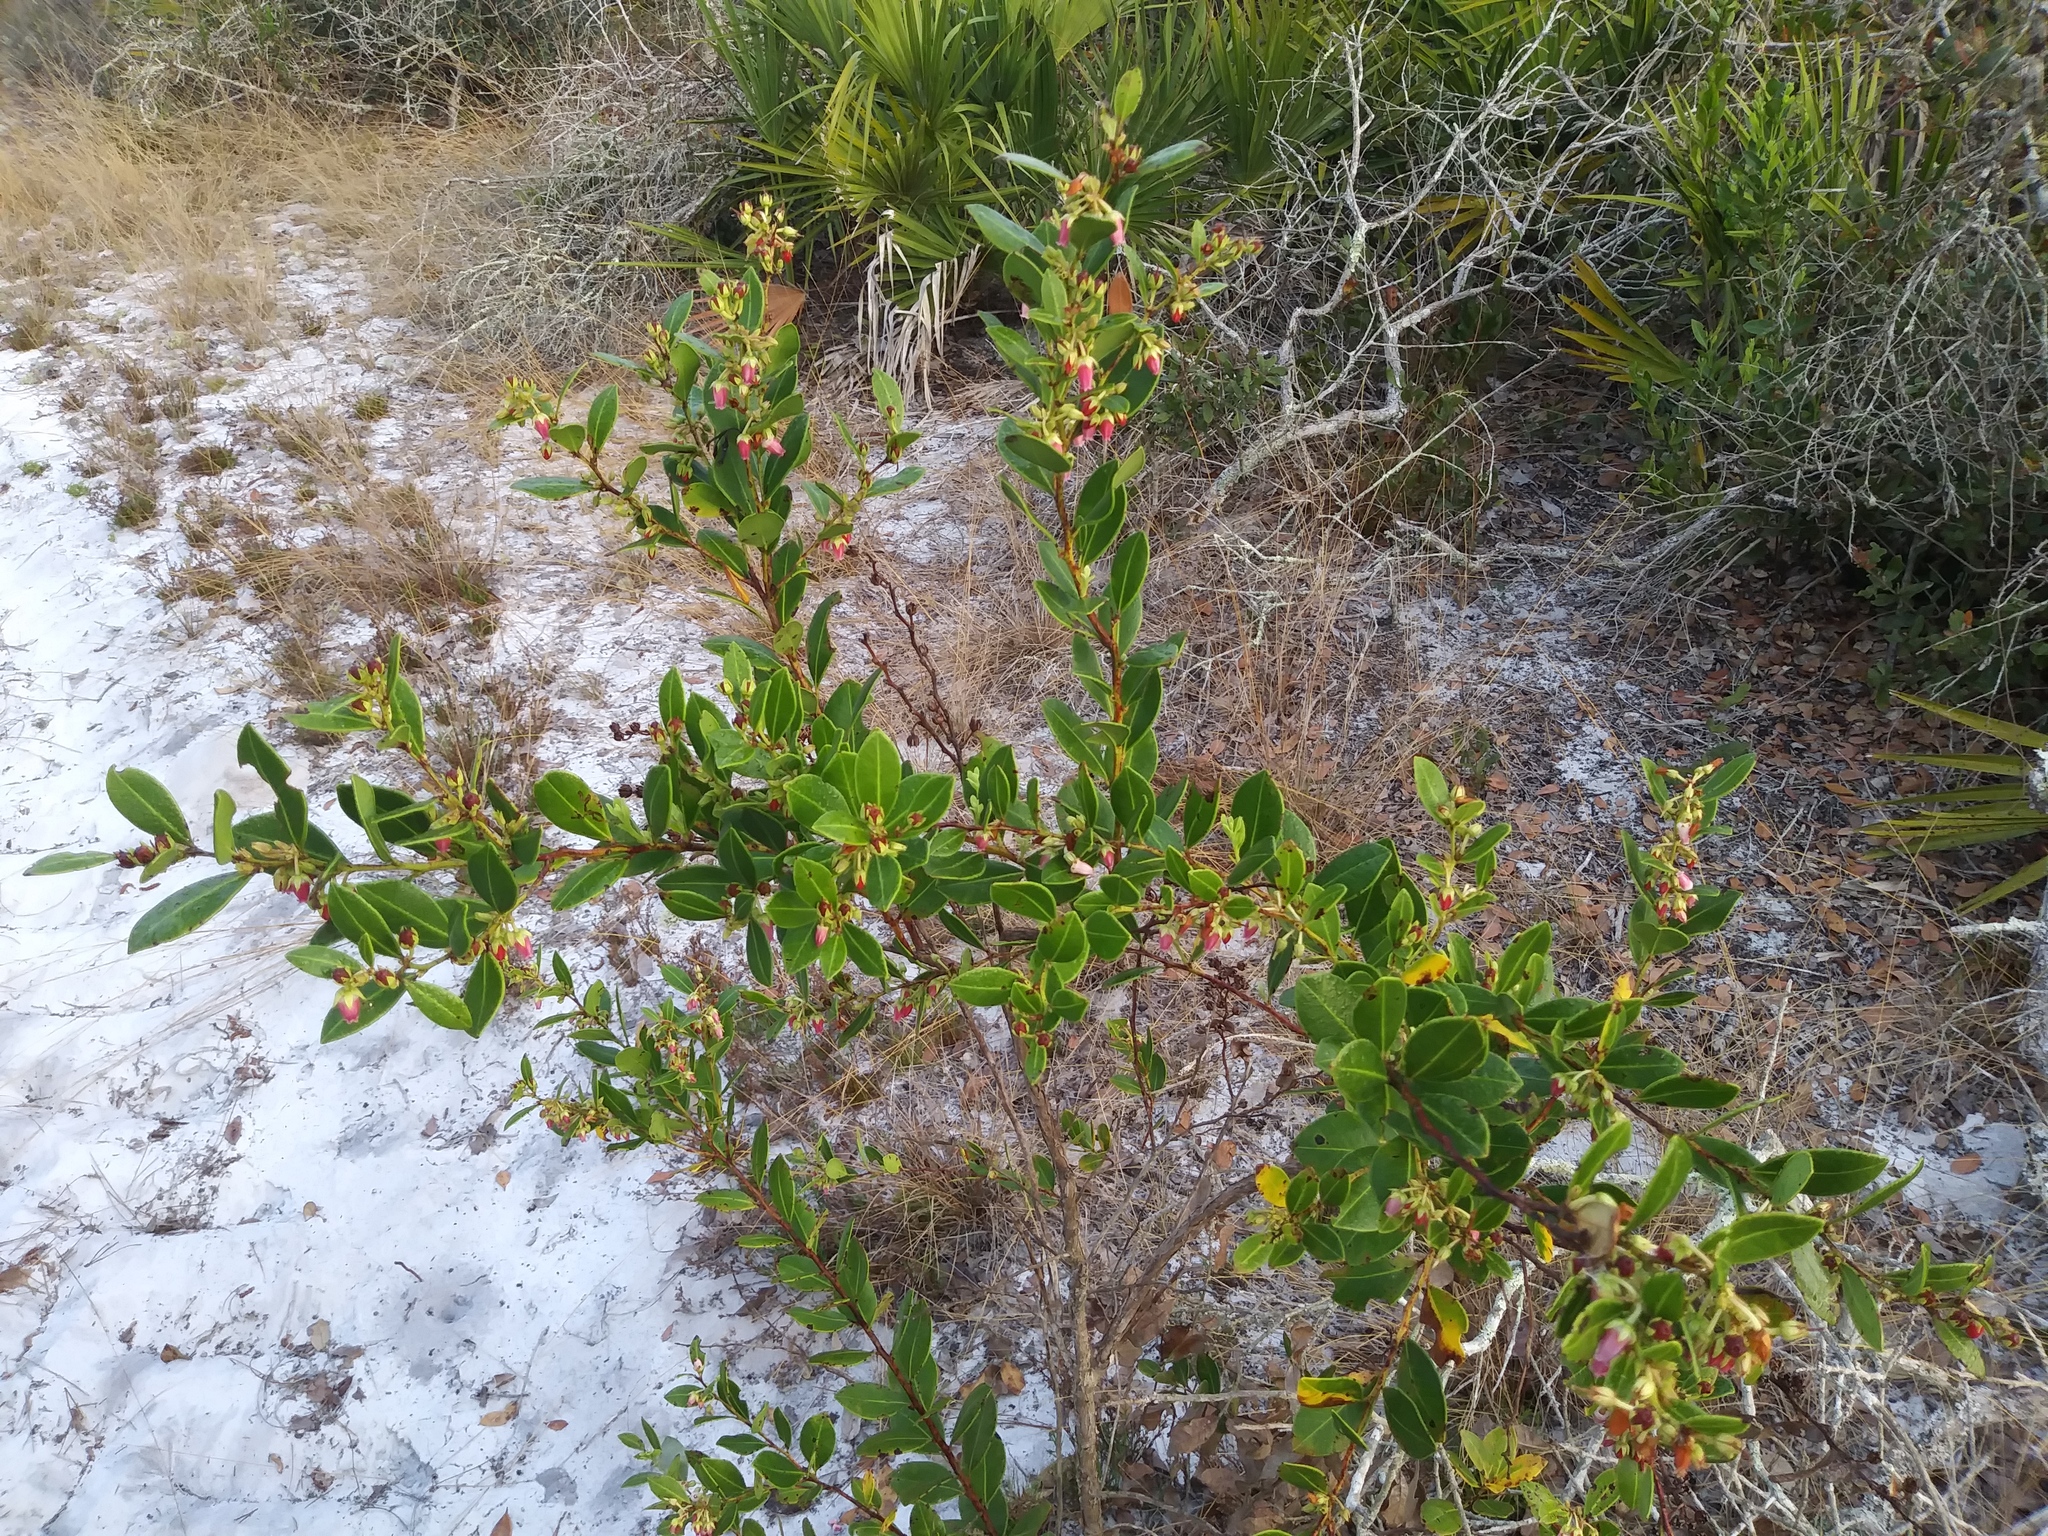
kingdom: Plantae
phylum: Tracheophyta
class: Magnoliopsida
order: Ericales
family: Ericaceae
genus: Lyonia
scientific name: Lyonia lucida
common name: Fetterbush
